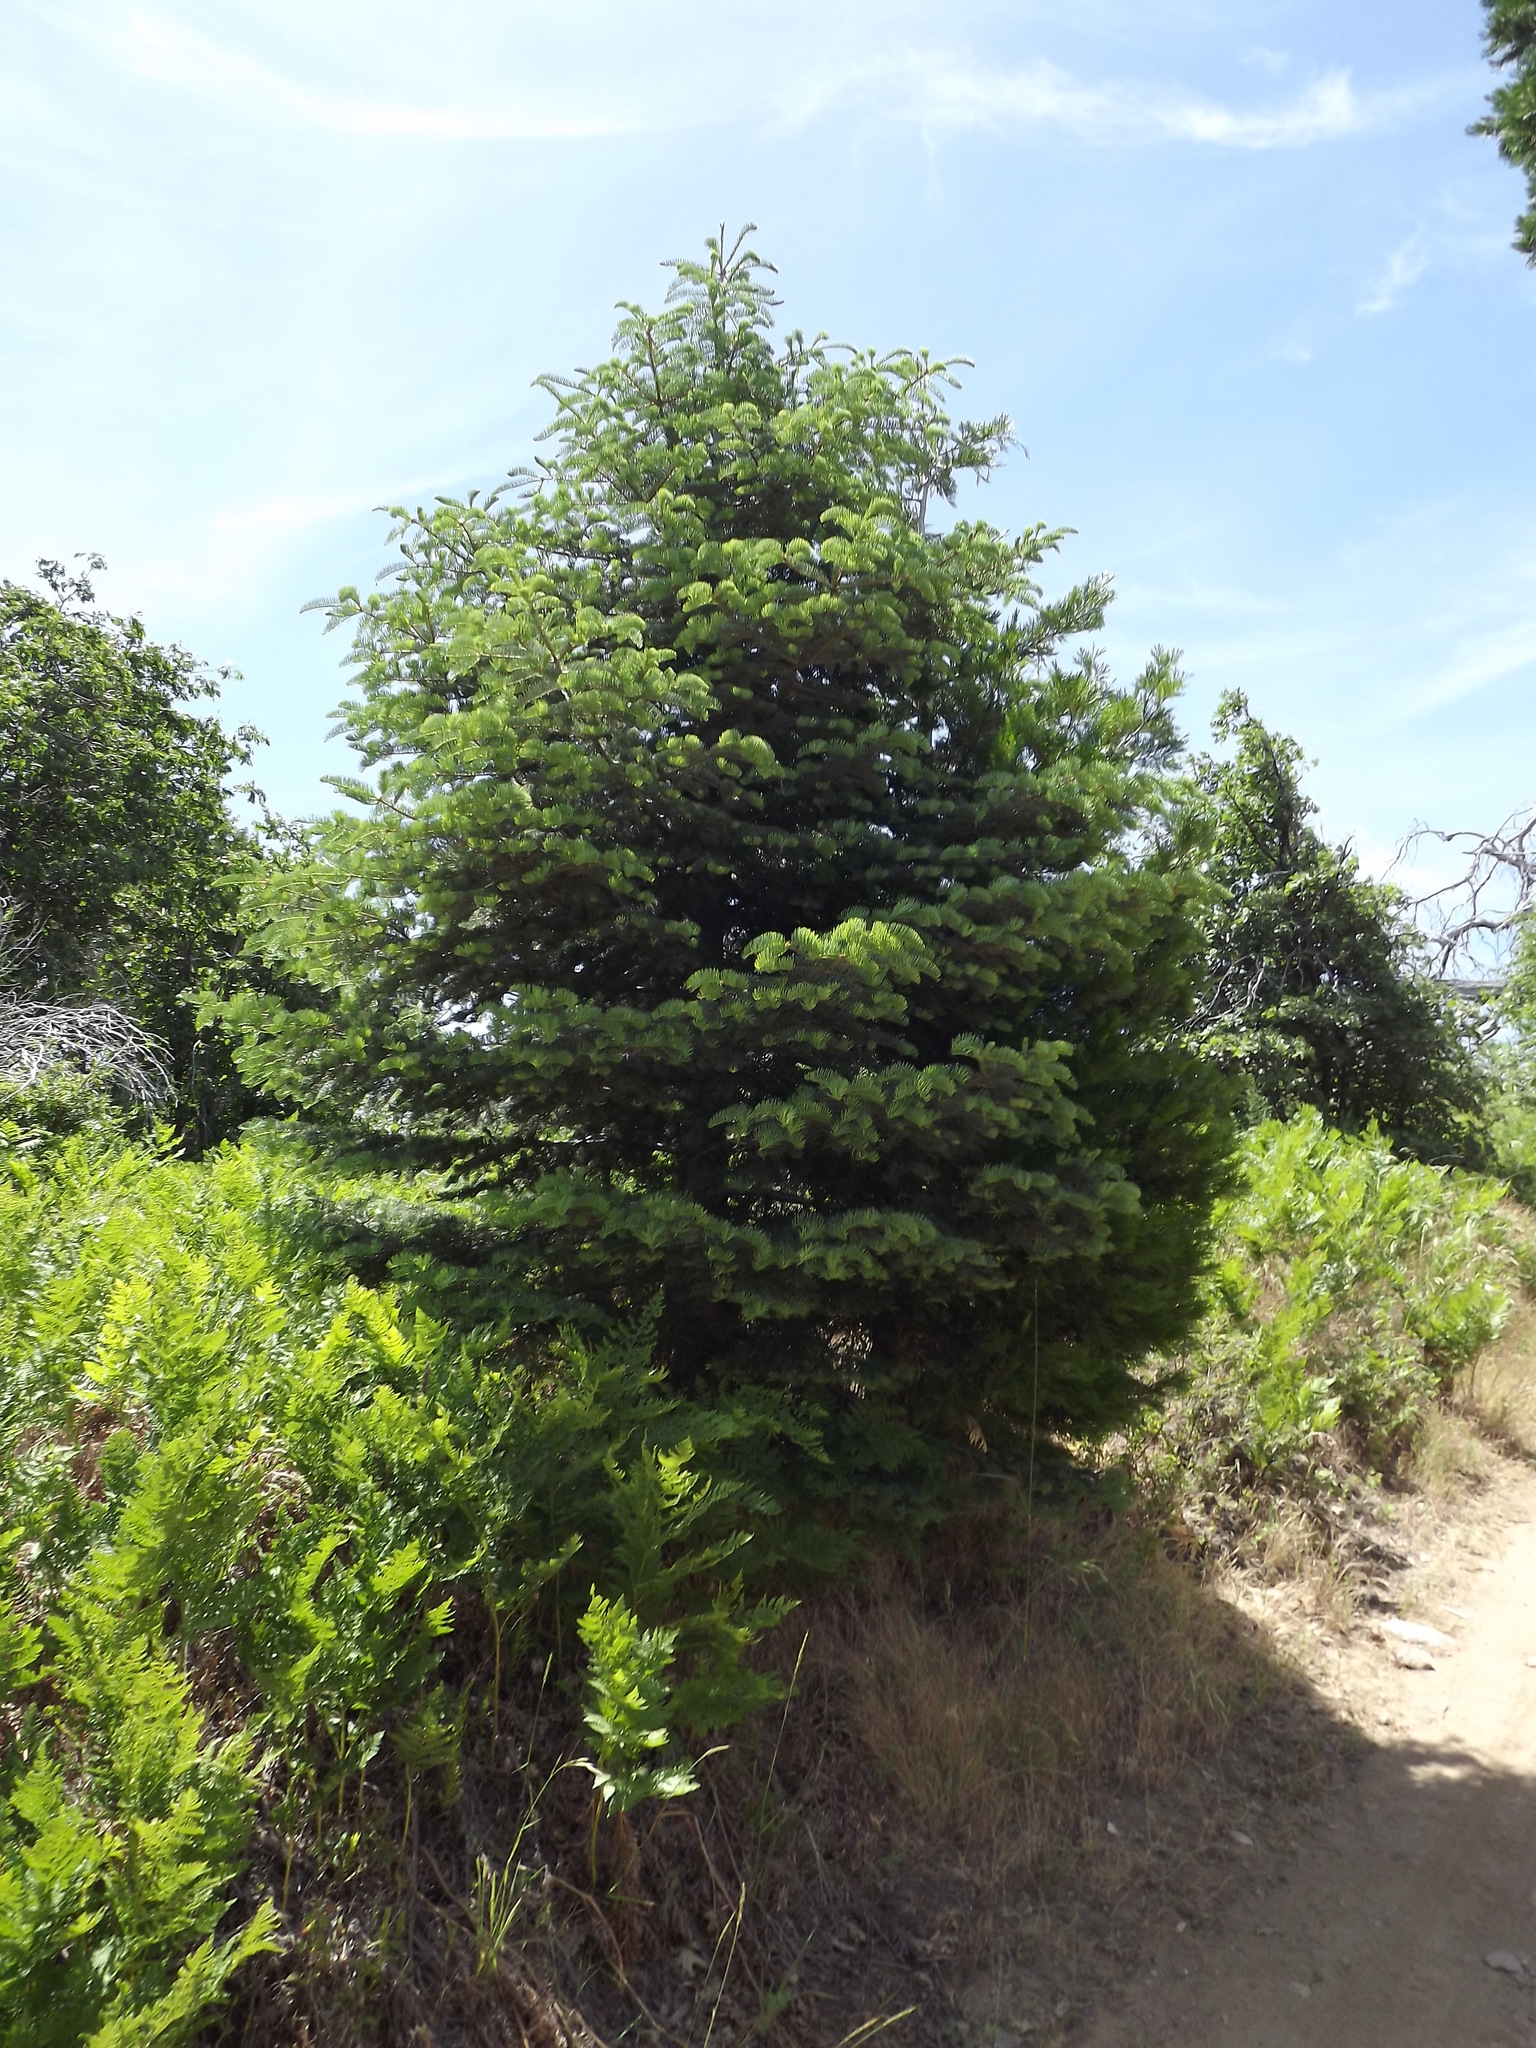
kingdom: Plantae
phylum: Tracheophyta
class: Pinopsida
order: Pinales
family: Pinaceae
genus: Abies
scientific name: Abies concolor
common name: Colorado fir
